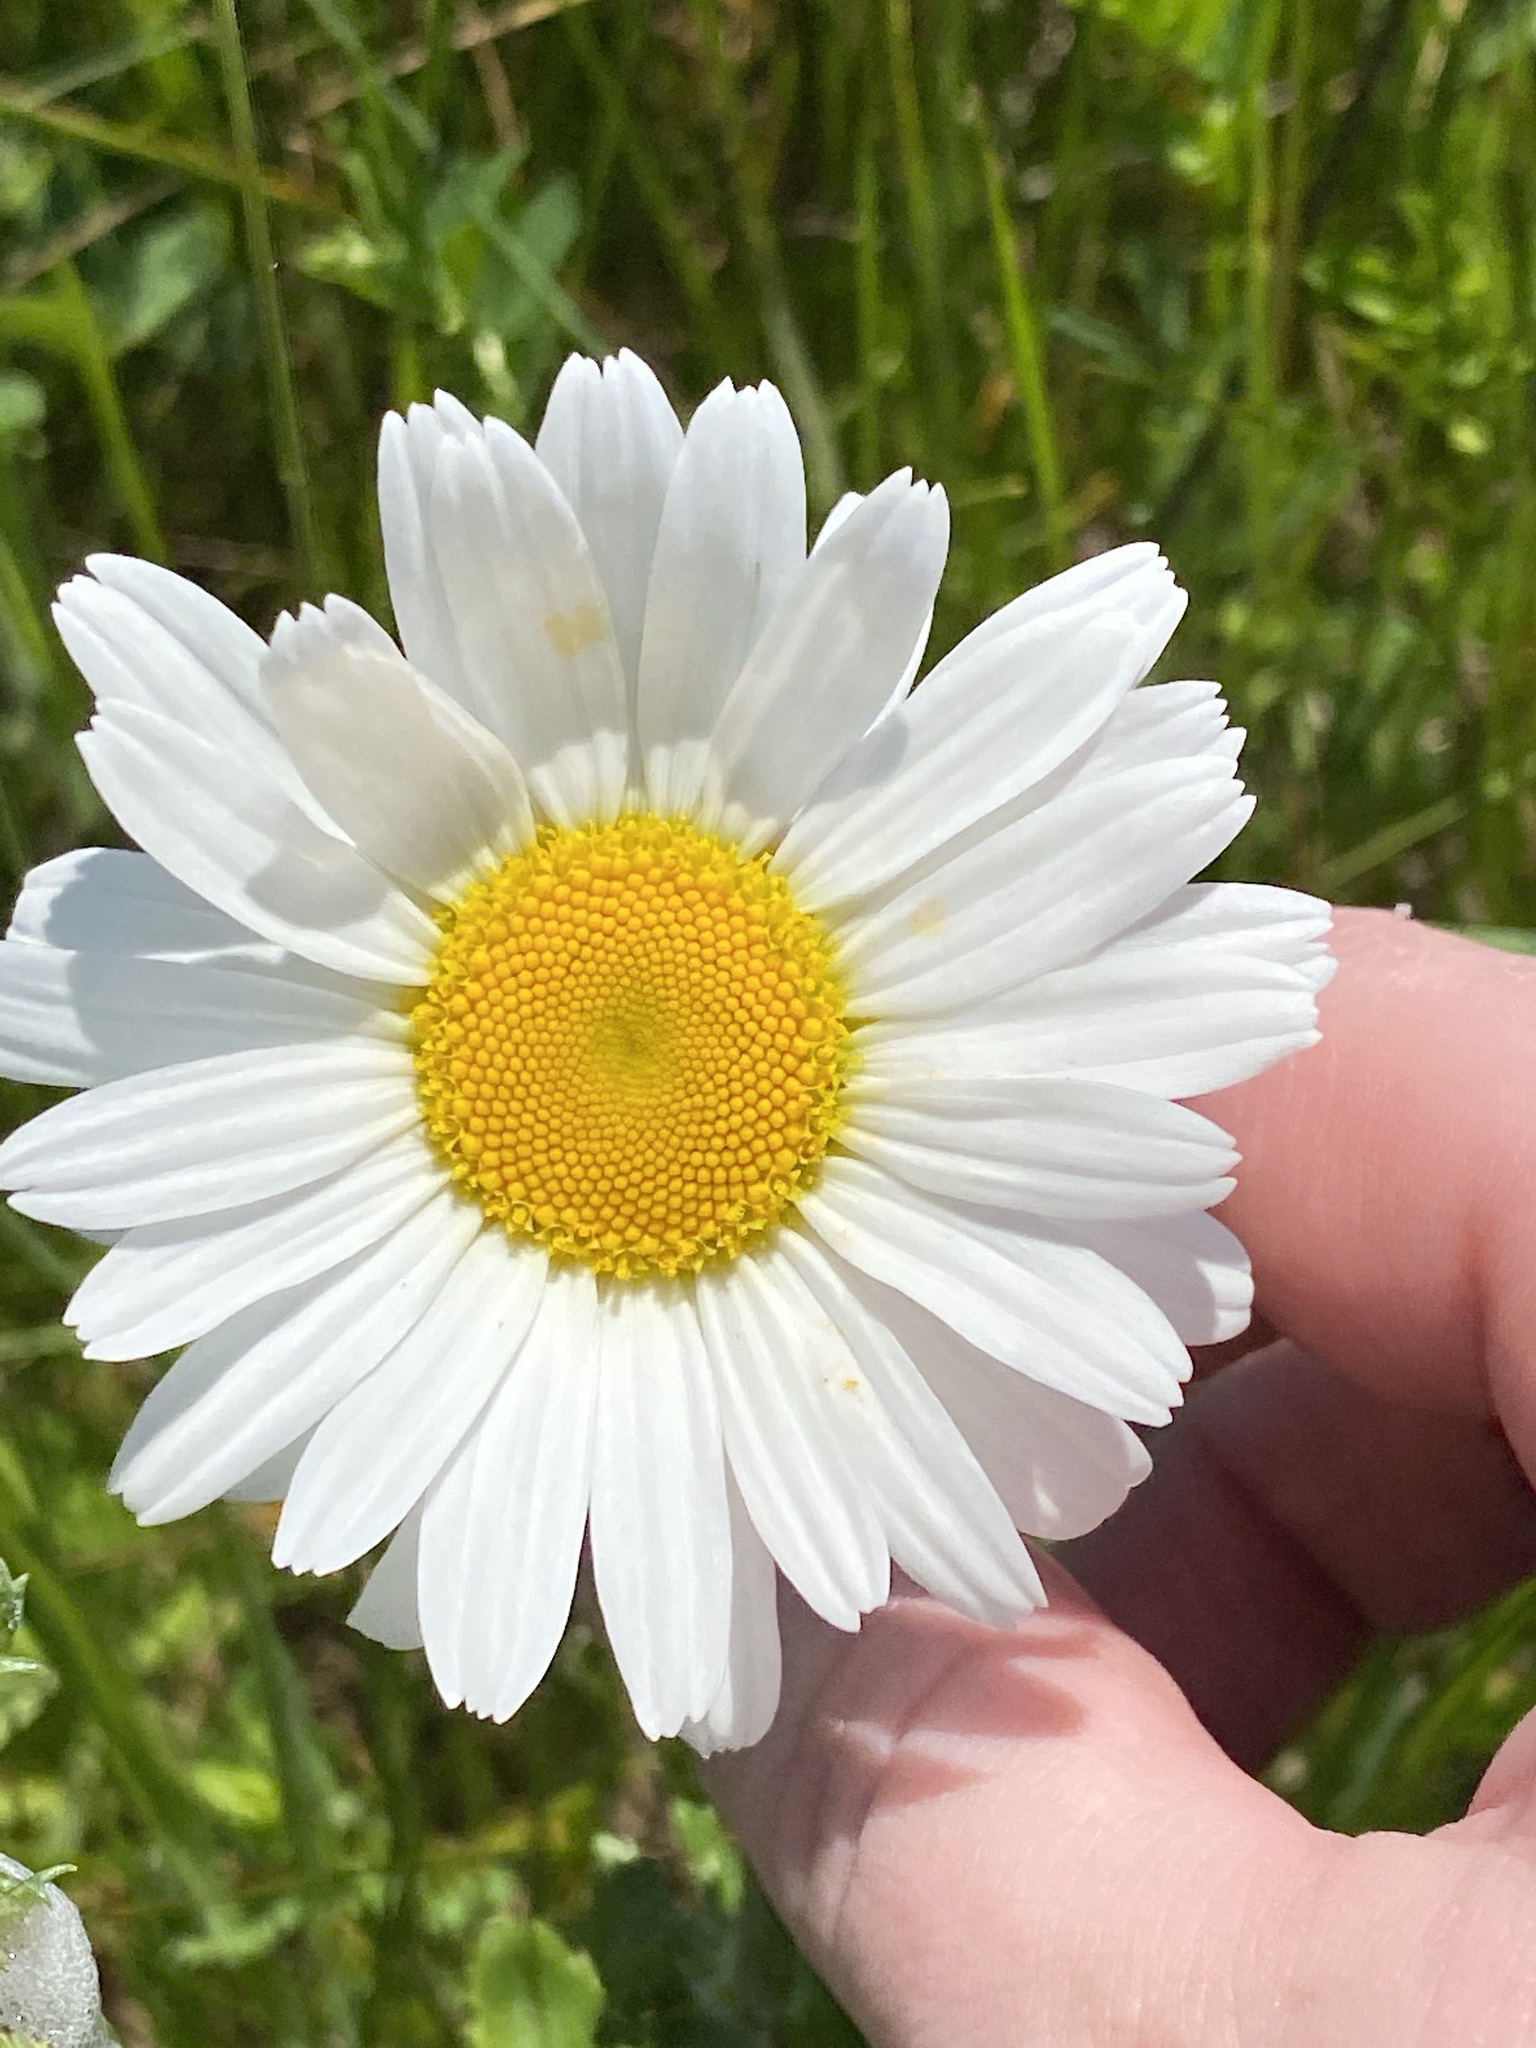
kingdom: Plantae
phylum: Tracheophyta
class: Magnoliopsida
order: Asterales
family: Asteraceae
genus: Leucanthemum
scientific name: Leucanthemum vulgare
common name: Oxeye daisy
